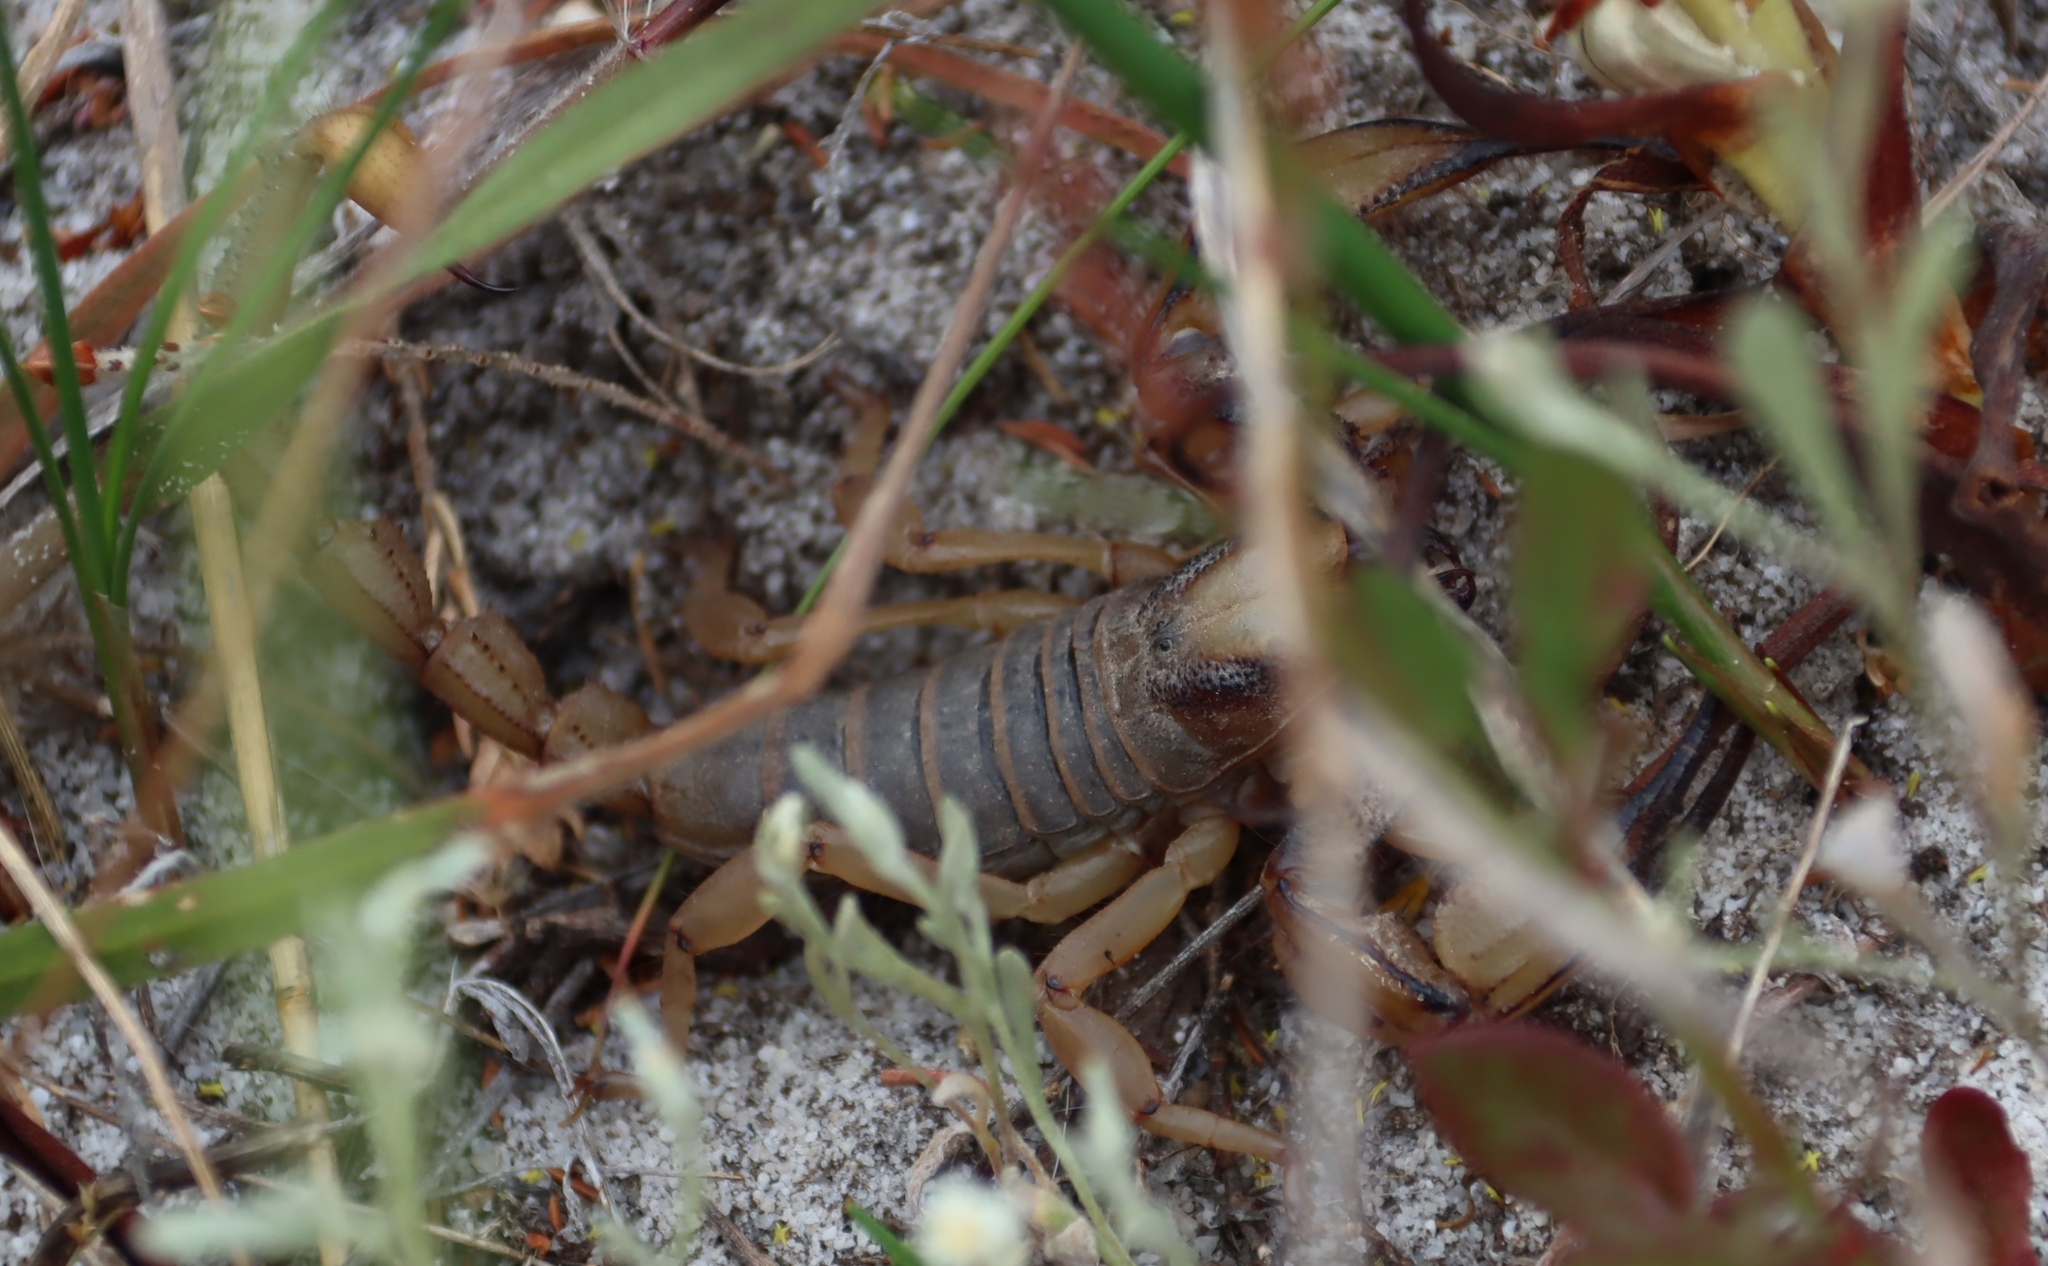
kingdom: Animalia
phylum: Arthropoda
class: Arachnida
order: Scorpiones
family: Scorpionidae
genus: Opistophthalmus
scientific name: Opistophthalmus capensis
